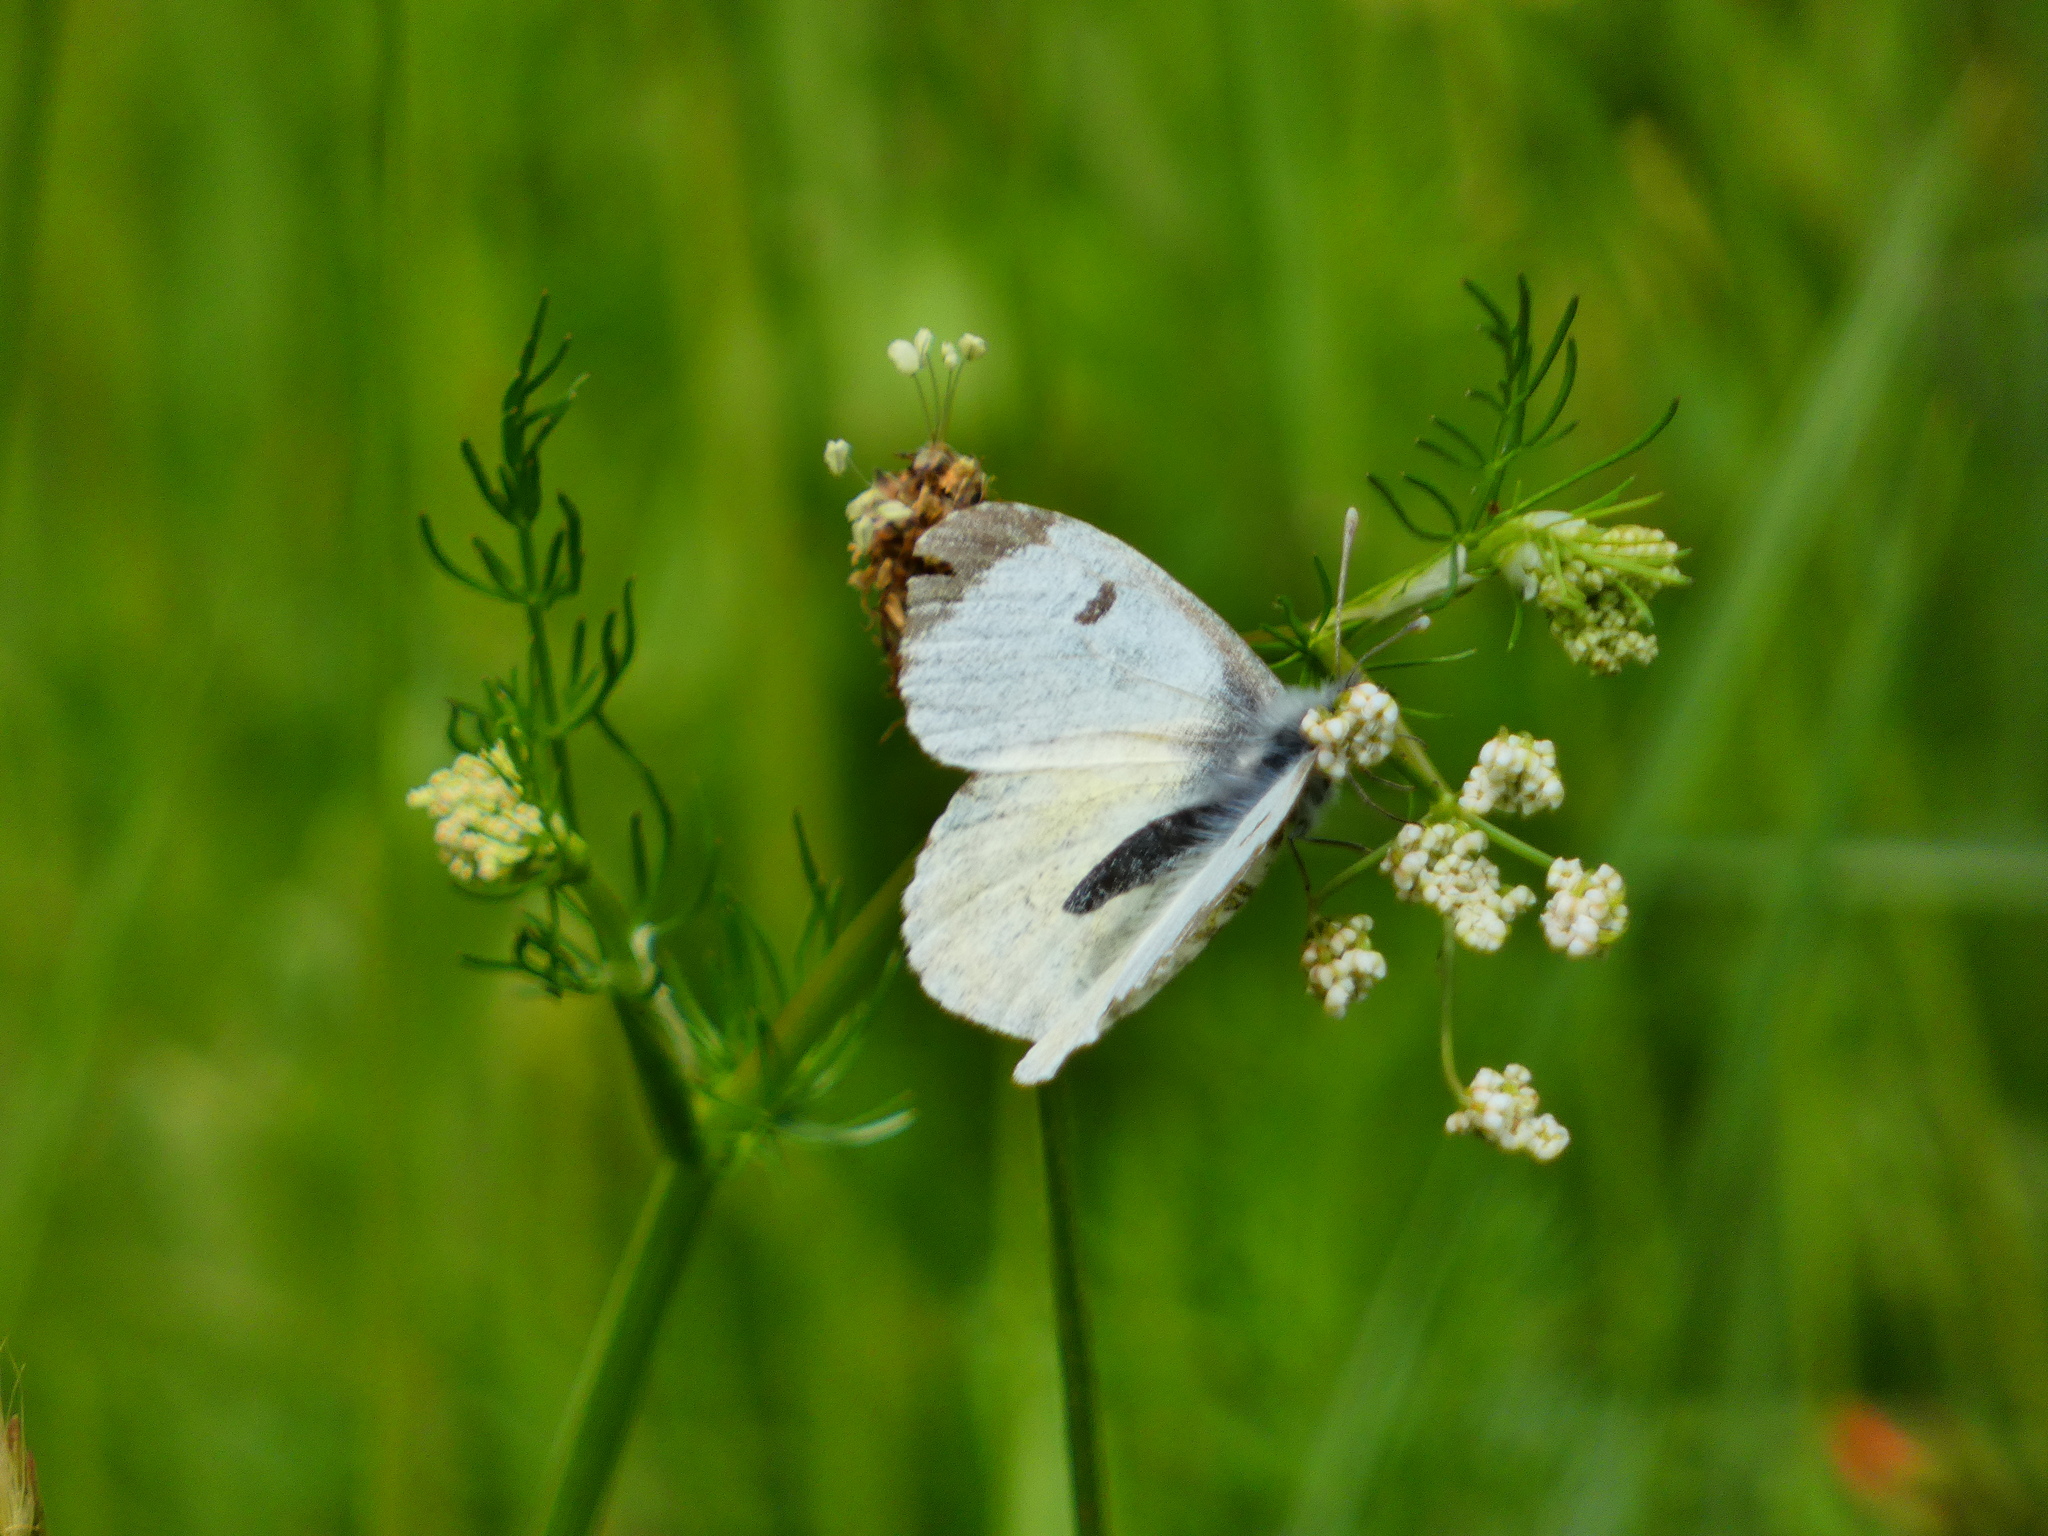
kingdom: Animalia
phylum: Arthropoda
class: Insecta
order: Lepidoptera
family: Pieridae
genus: Anthocharis
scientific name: Anthocharis cardamines
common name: Orange-tip
